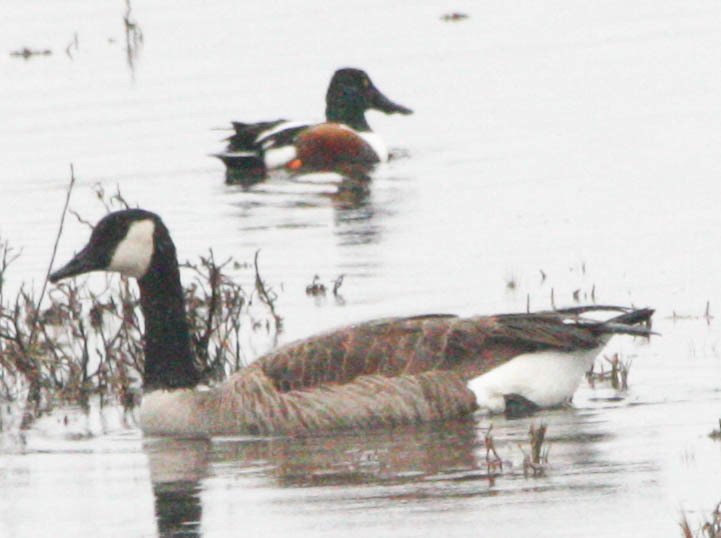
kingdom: Animalia
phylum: Chordata
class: Aves
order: Anseriformes
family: Anatidae
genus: Spatula
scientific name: Spatula clypeata
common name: Northern shoveler
